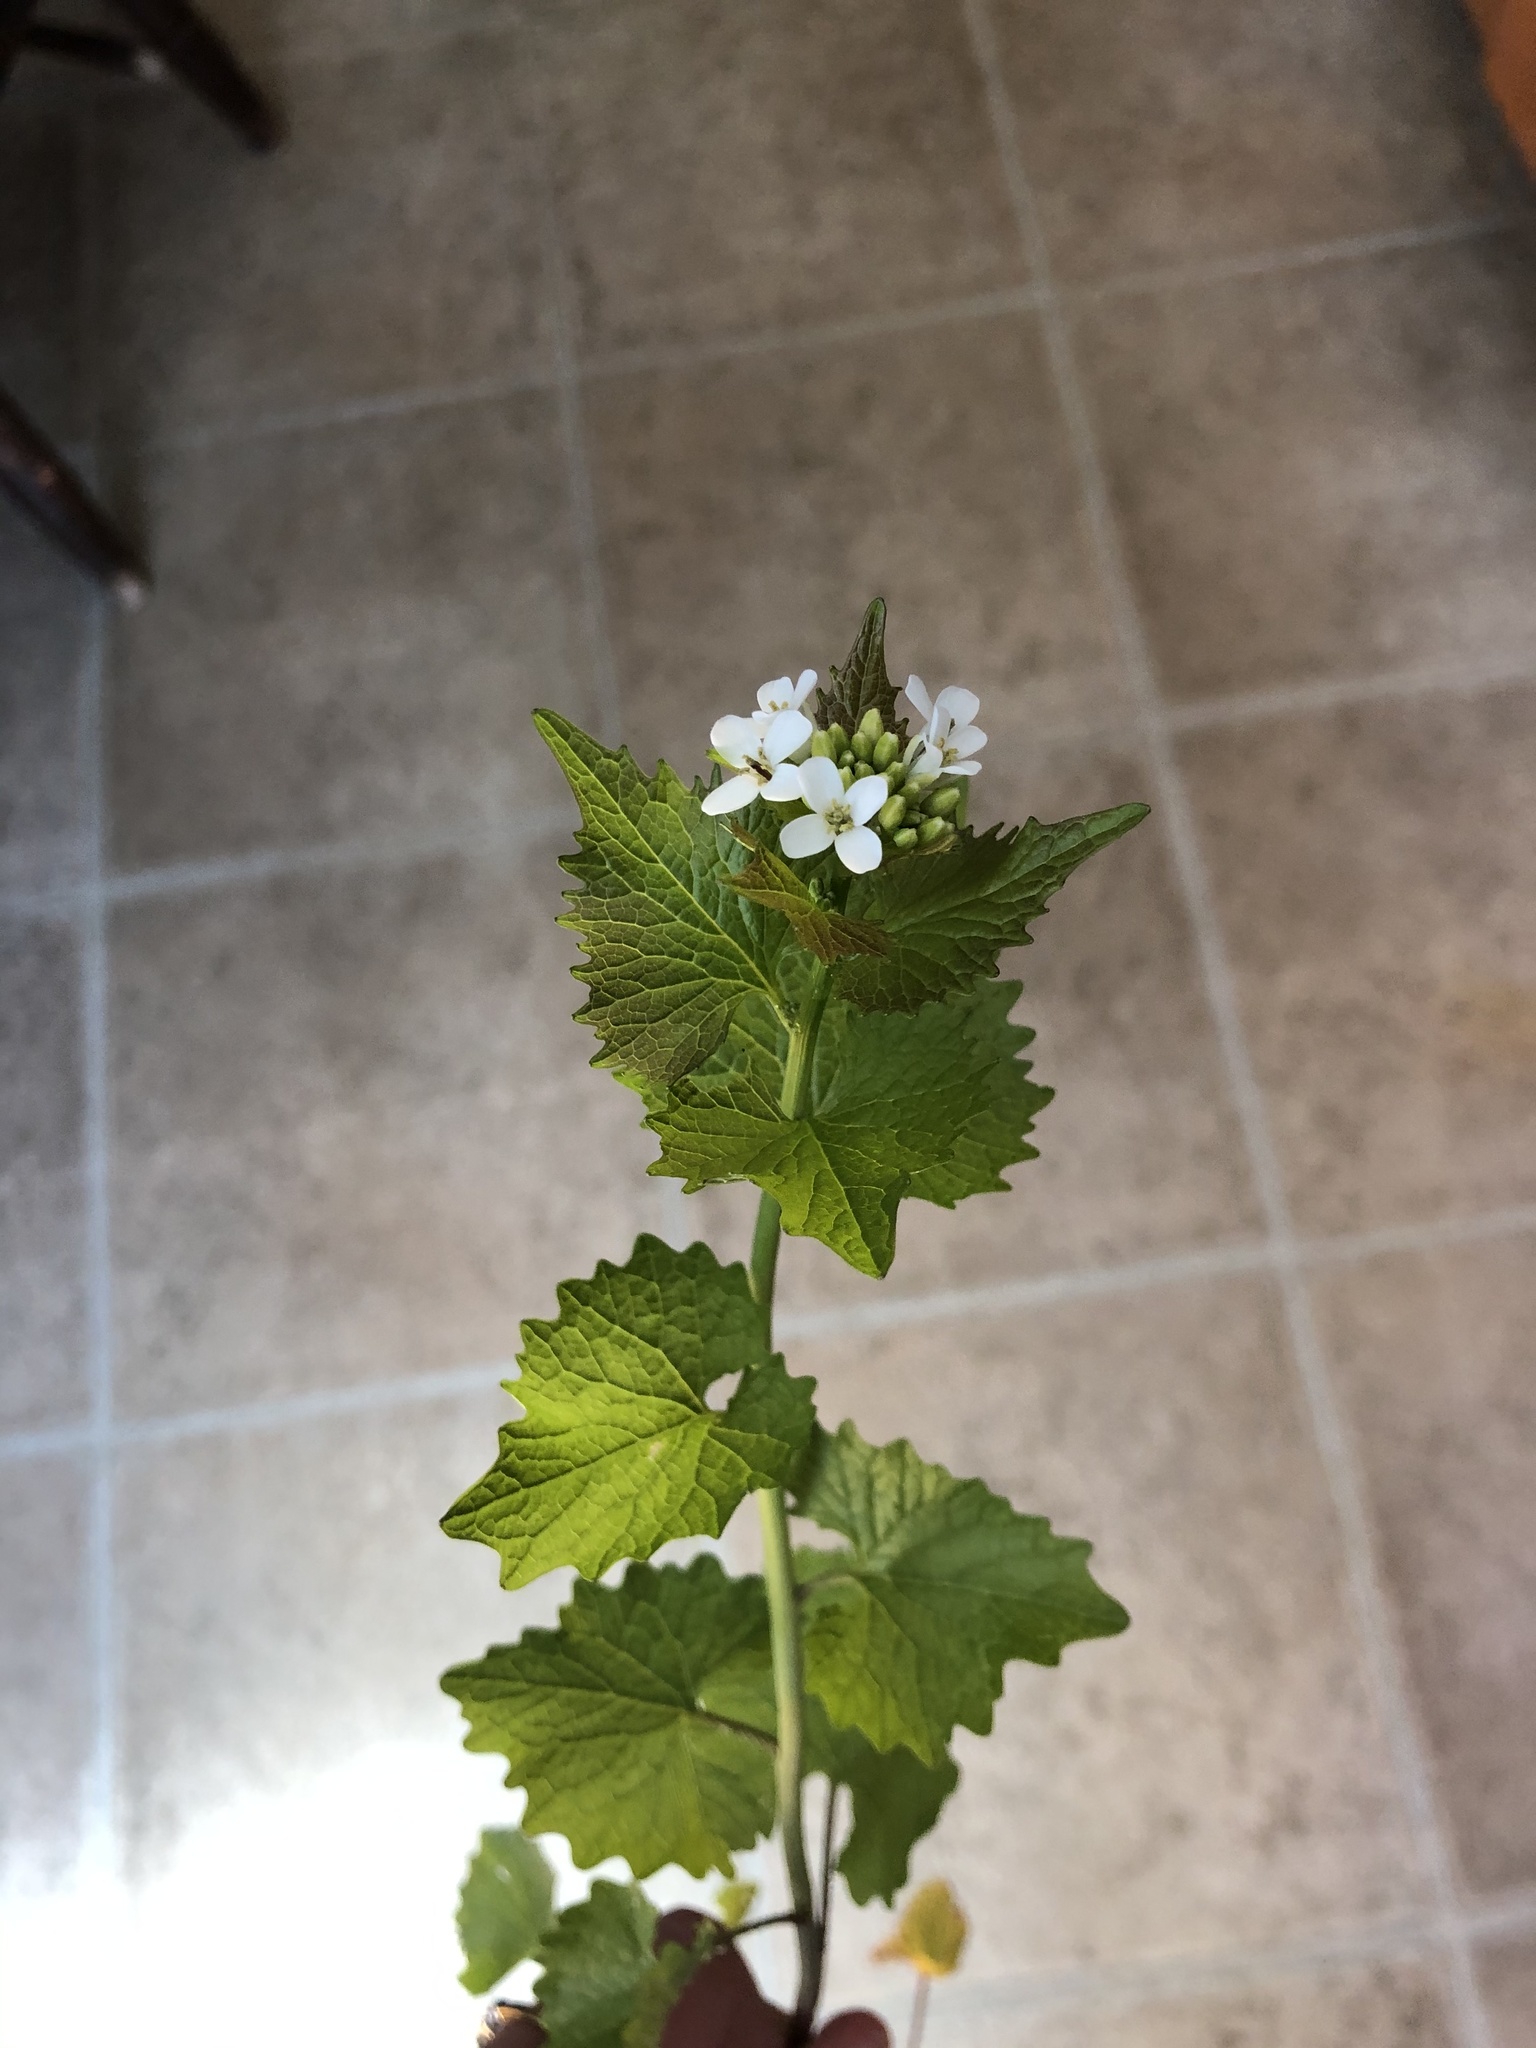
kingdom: Plantae
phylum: Tracheophyta
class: Magnoliopsida
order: Brassicales
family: Brassicaceae
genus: Alliaria
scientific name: Alliaria petiolata
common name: Garlic mustard
